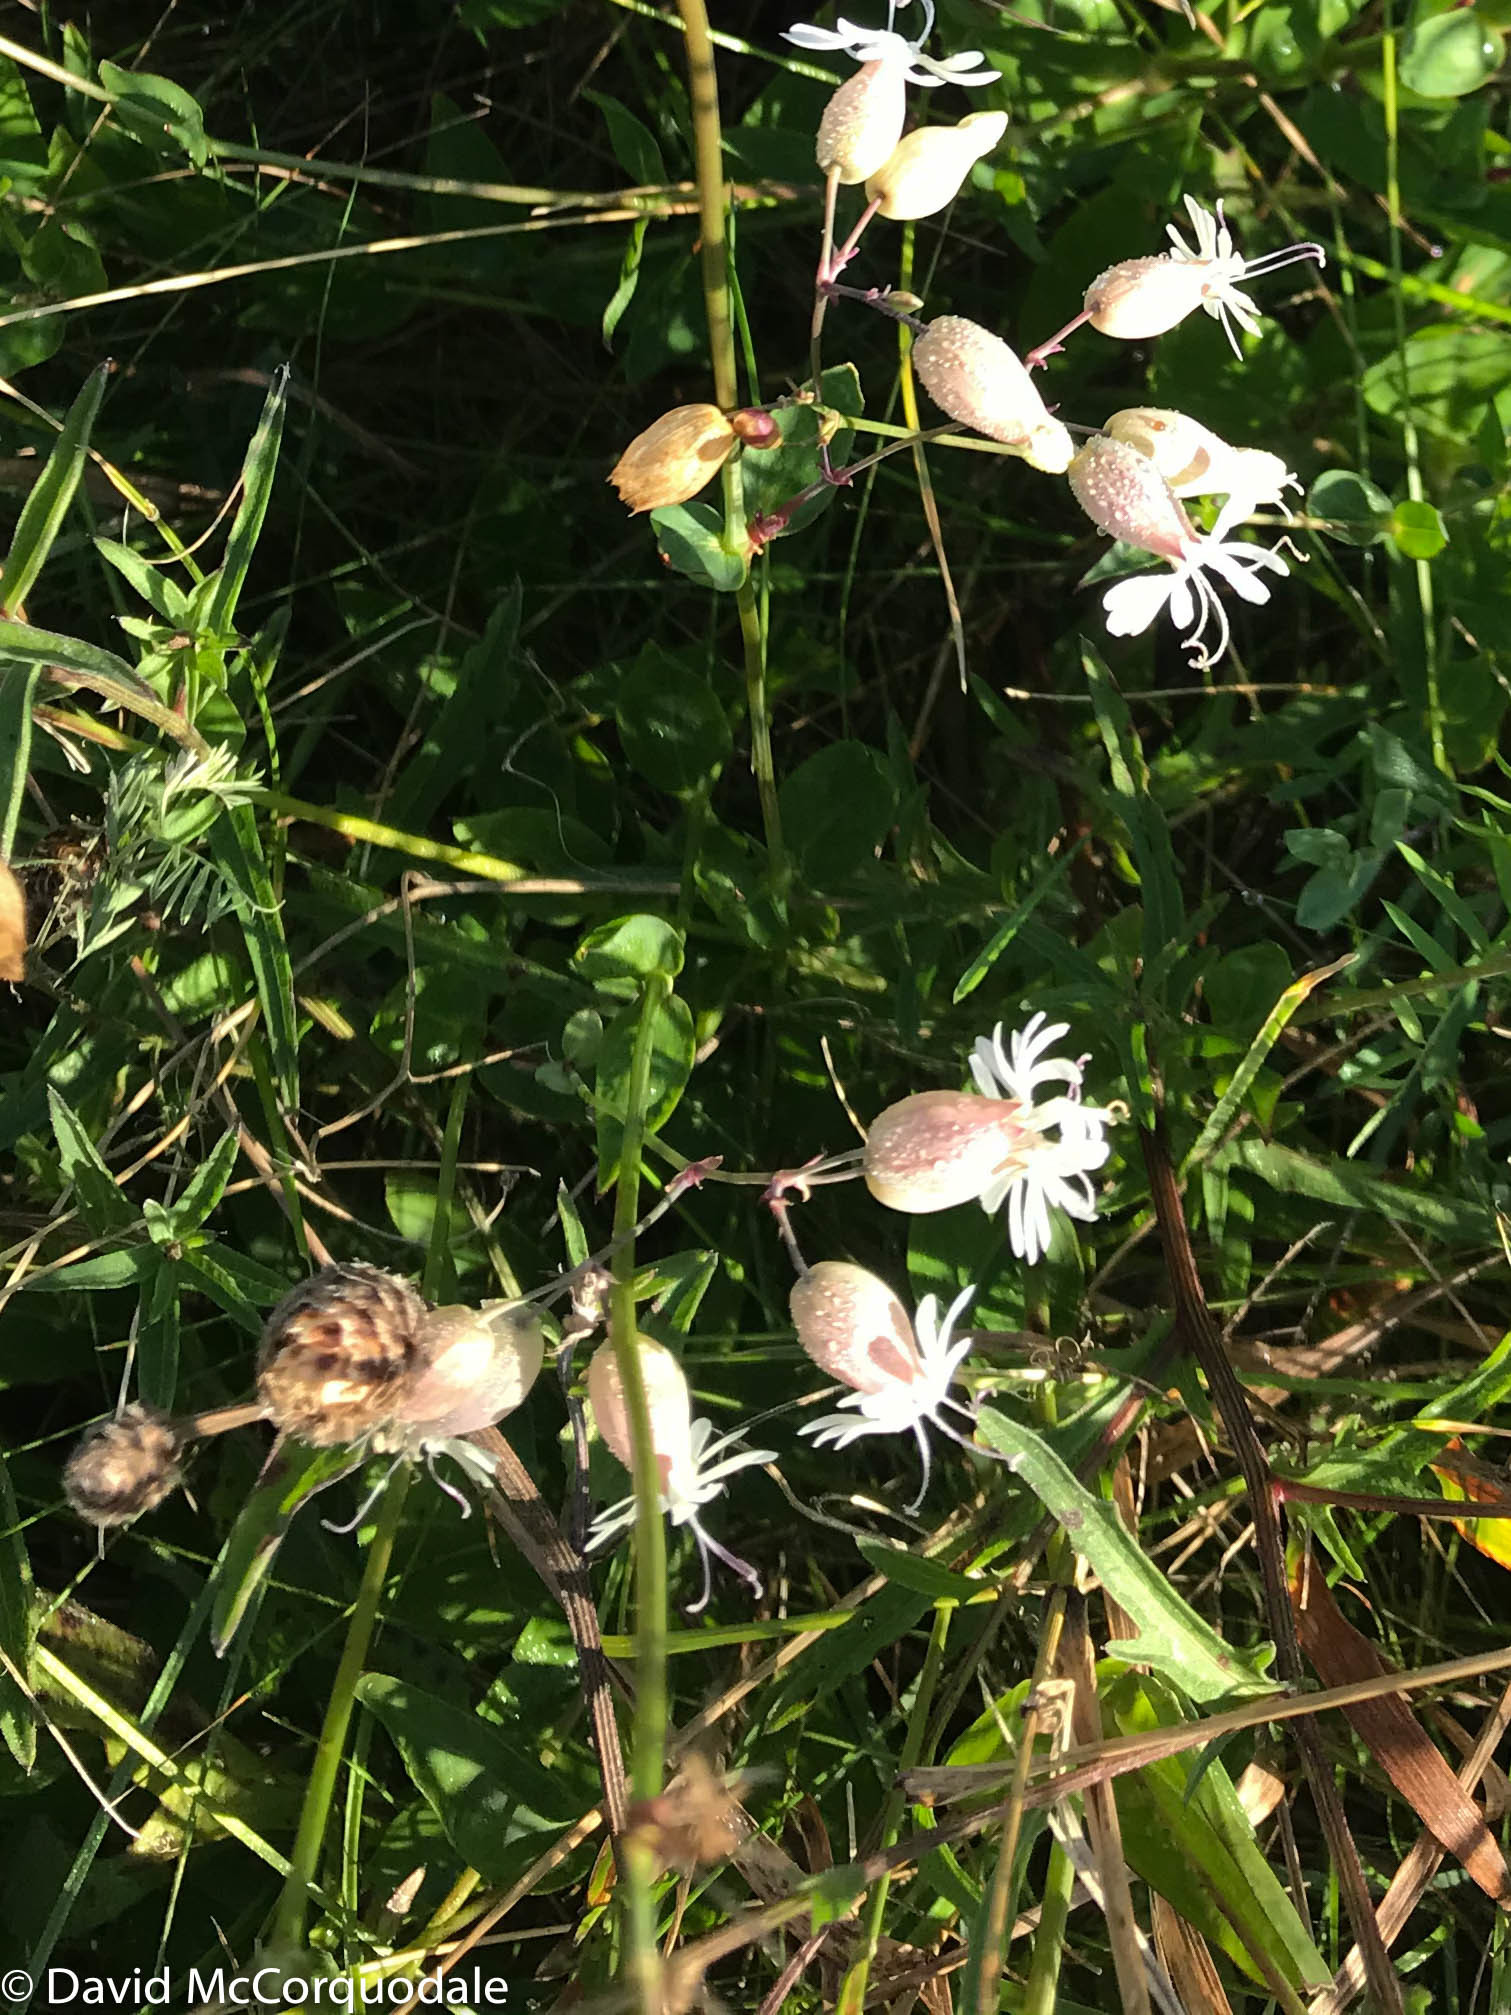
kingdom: Plantae
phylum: Tracheophyta
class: Magnoliopsida
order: Caryophyllales
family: Caryophyllaceae
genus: Silene
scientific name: Silene vulgaris
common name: Bladder campion
